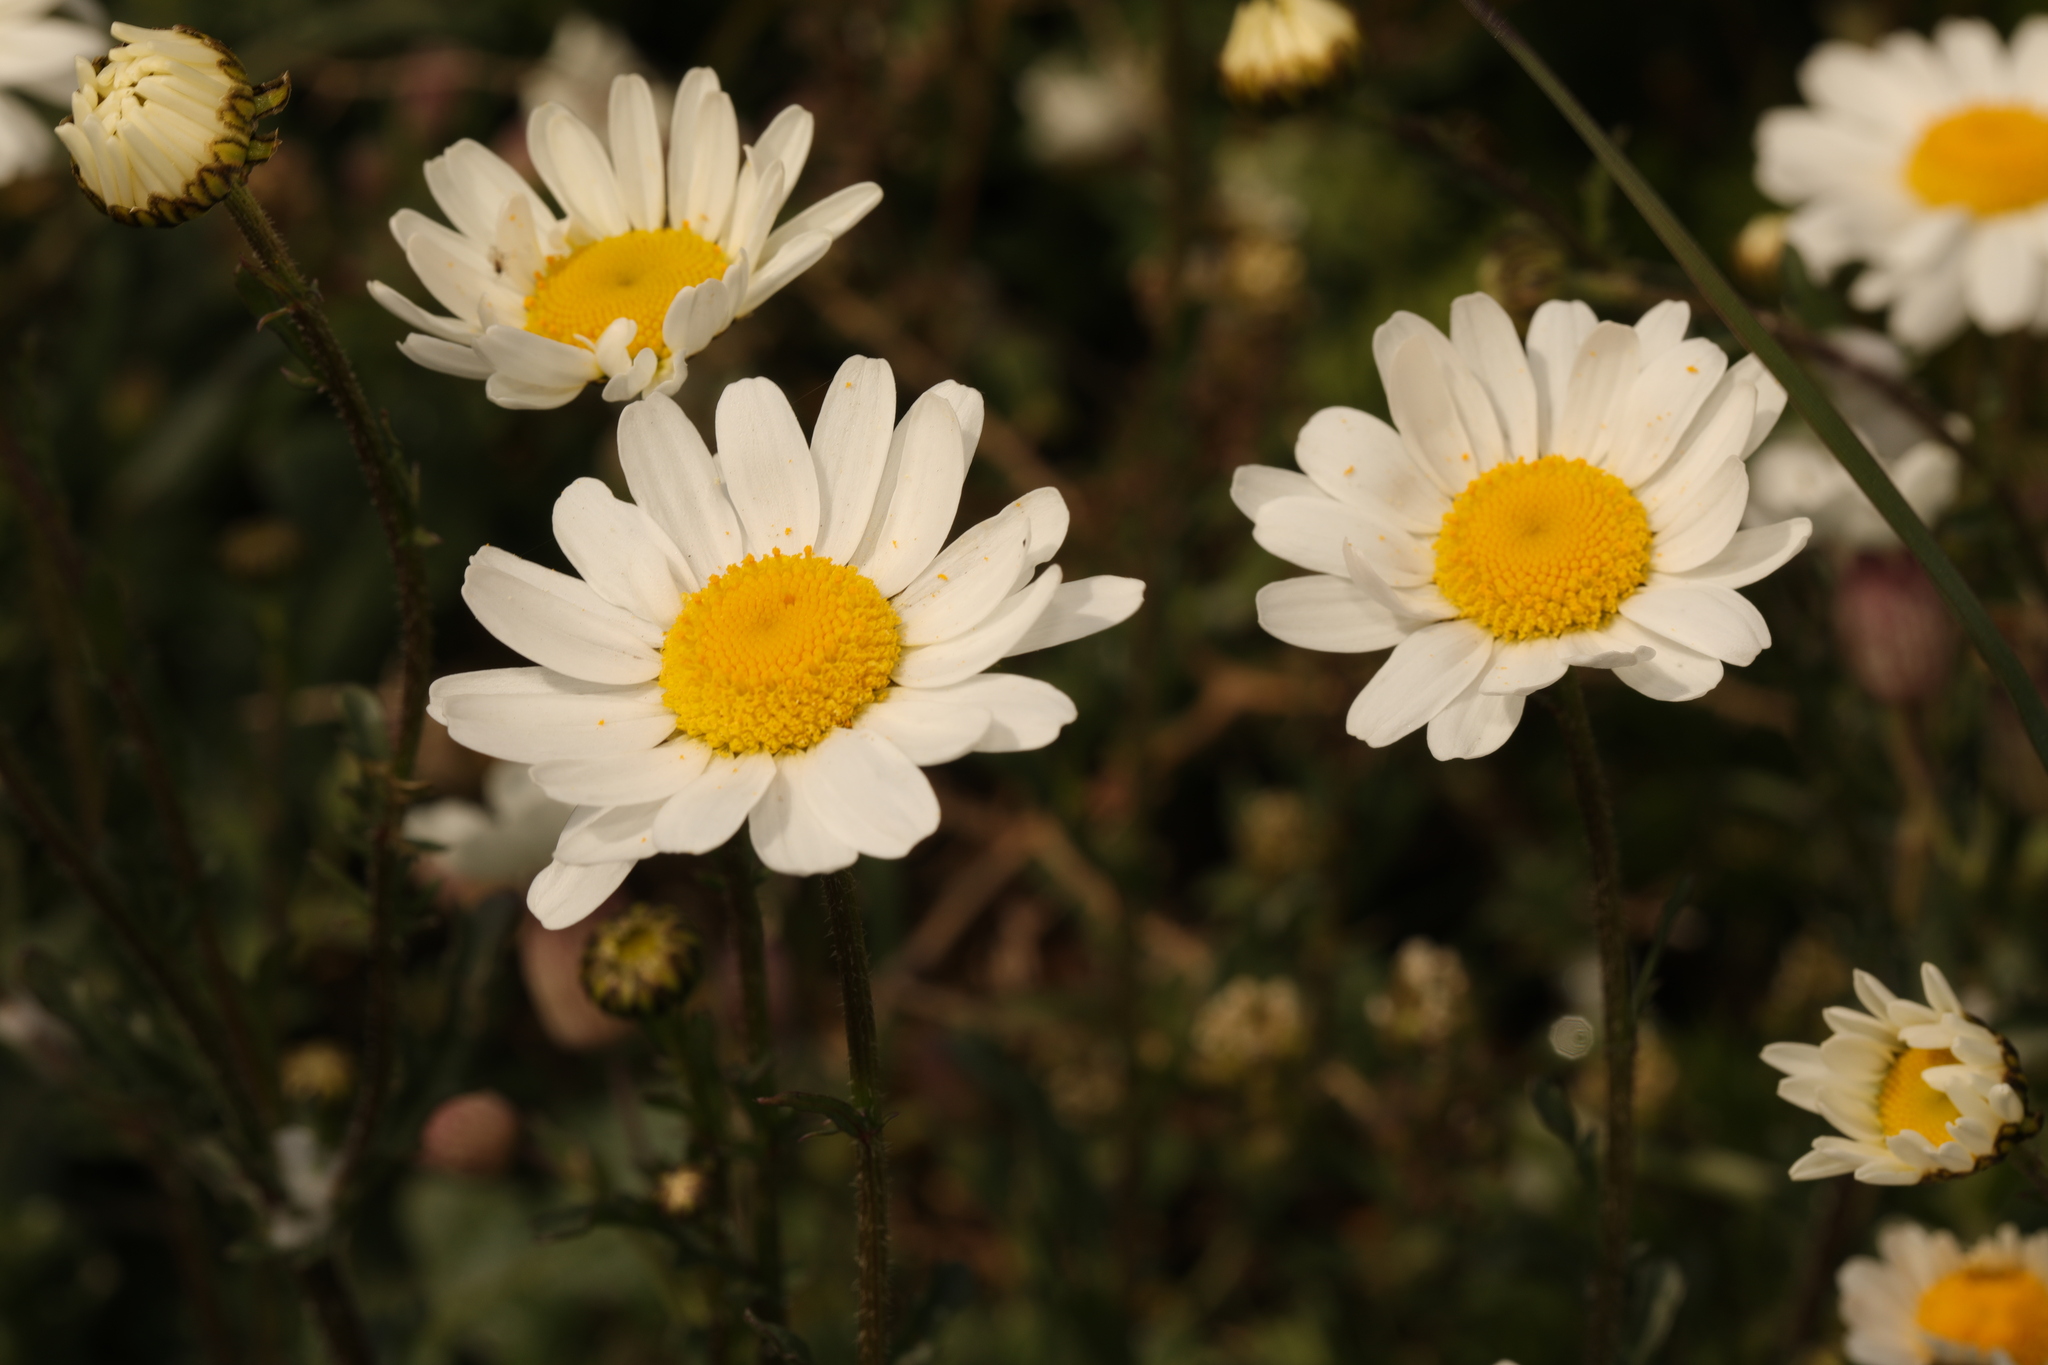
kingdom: Plantae
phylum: Tracheophyta
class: Magnoliopsida
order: Asterales
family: Asteraceae
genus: Leucanthemum
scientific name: Leucanthemum vulgare
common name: Oxeye daisy
